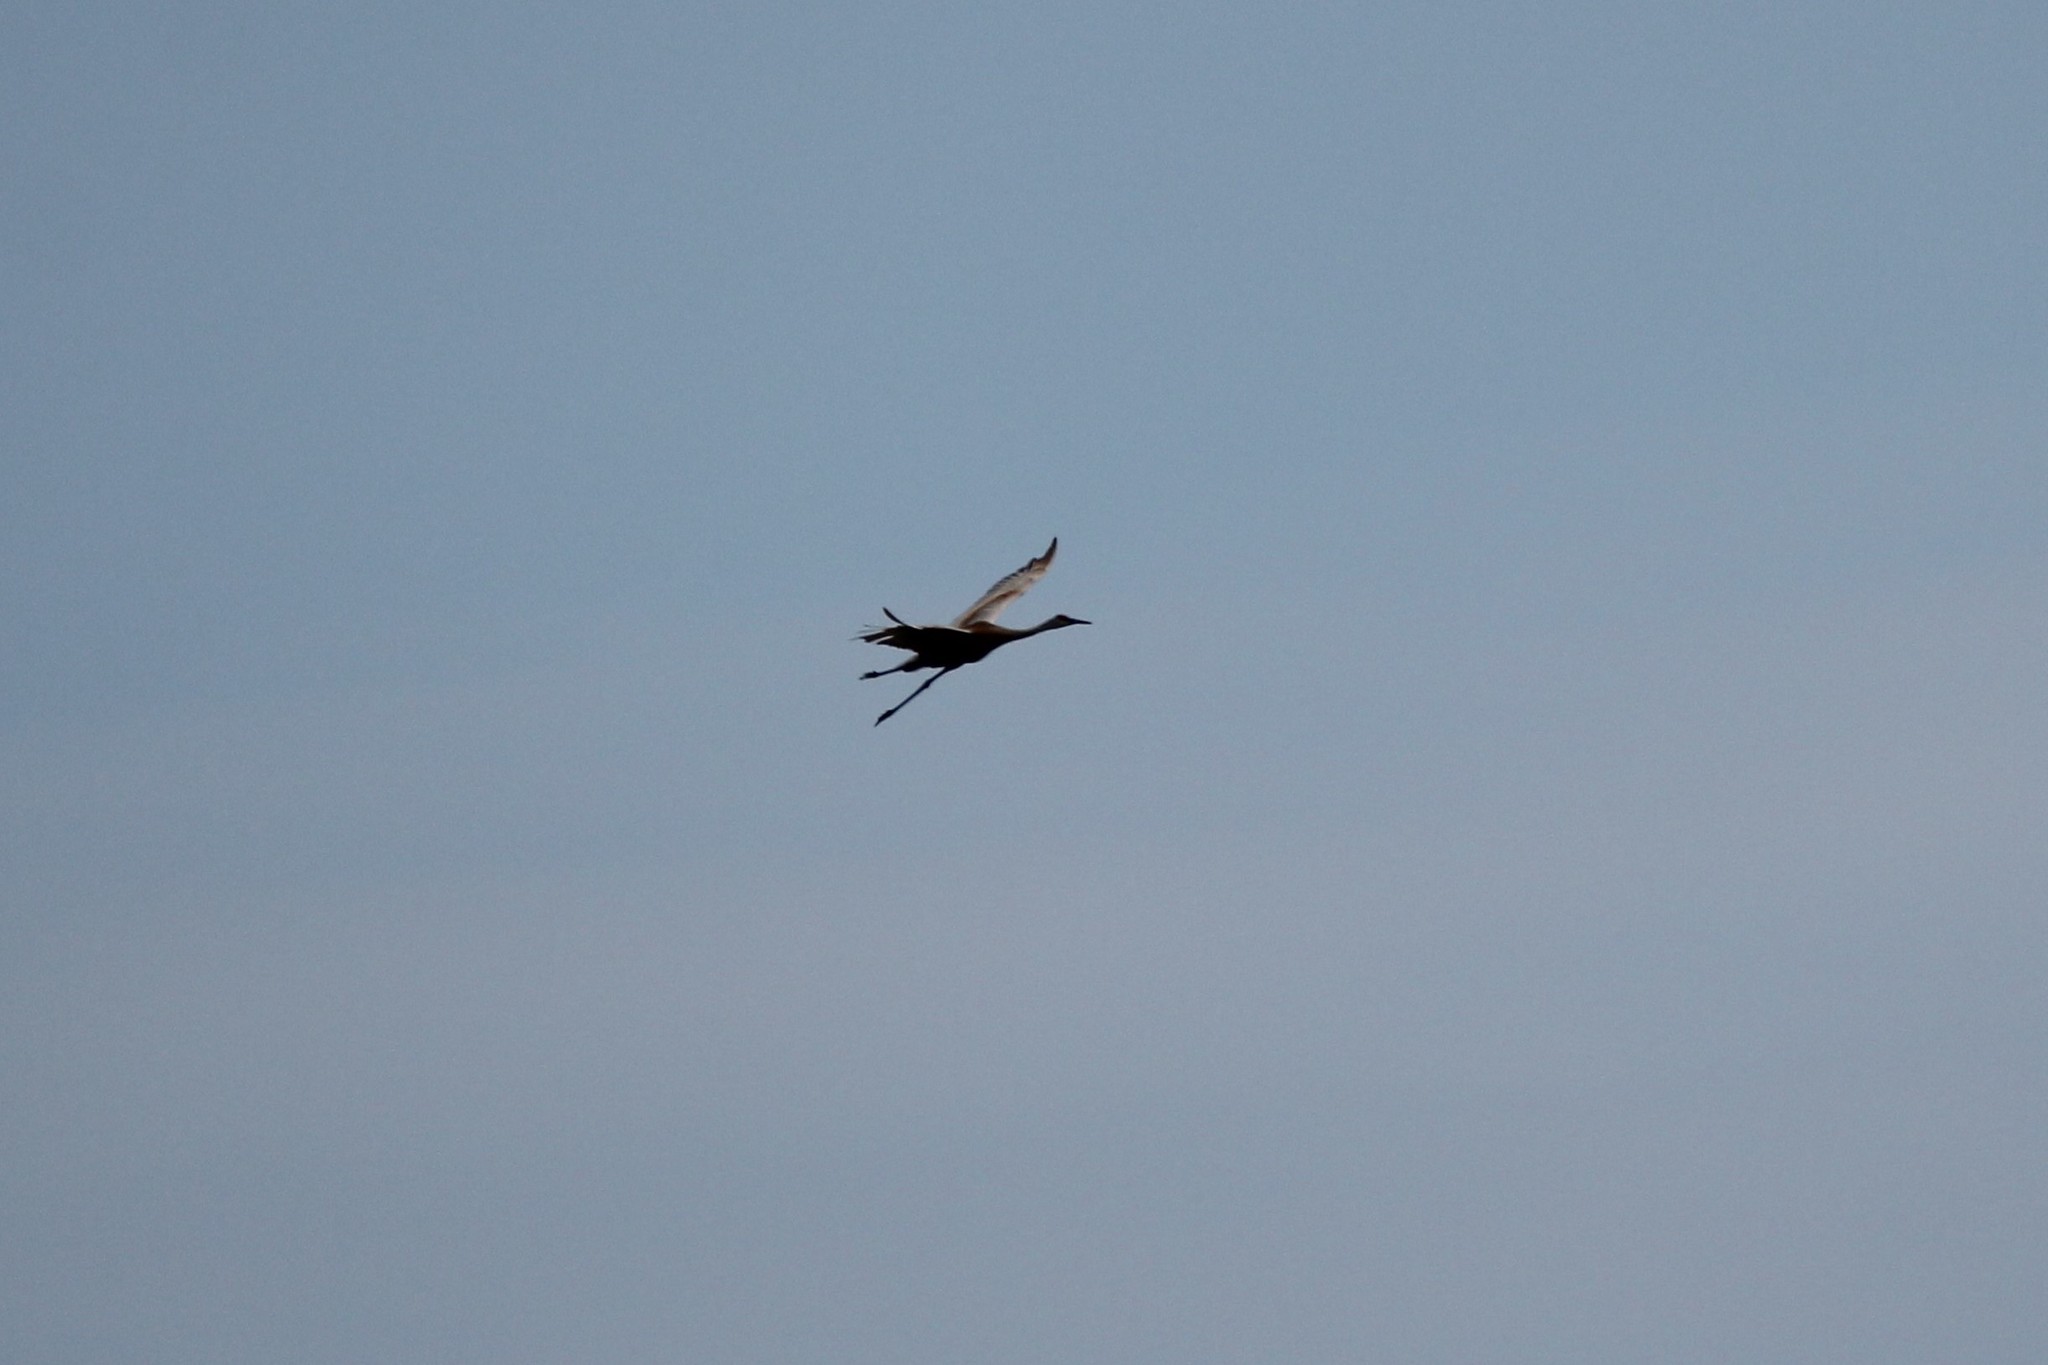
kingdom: Animalia
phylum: Chordata
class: Aves
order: Gruiformes
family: Gruidae
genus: Grus
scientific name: Grus canadensis
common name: Sandhill crane
